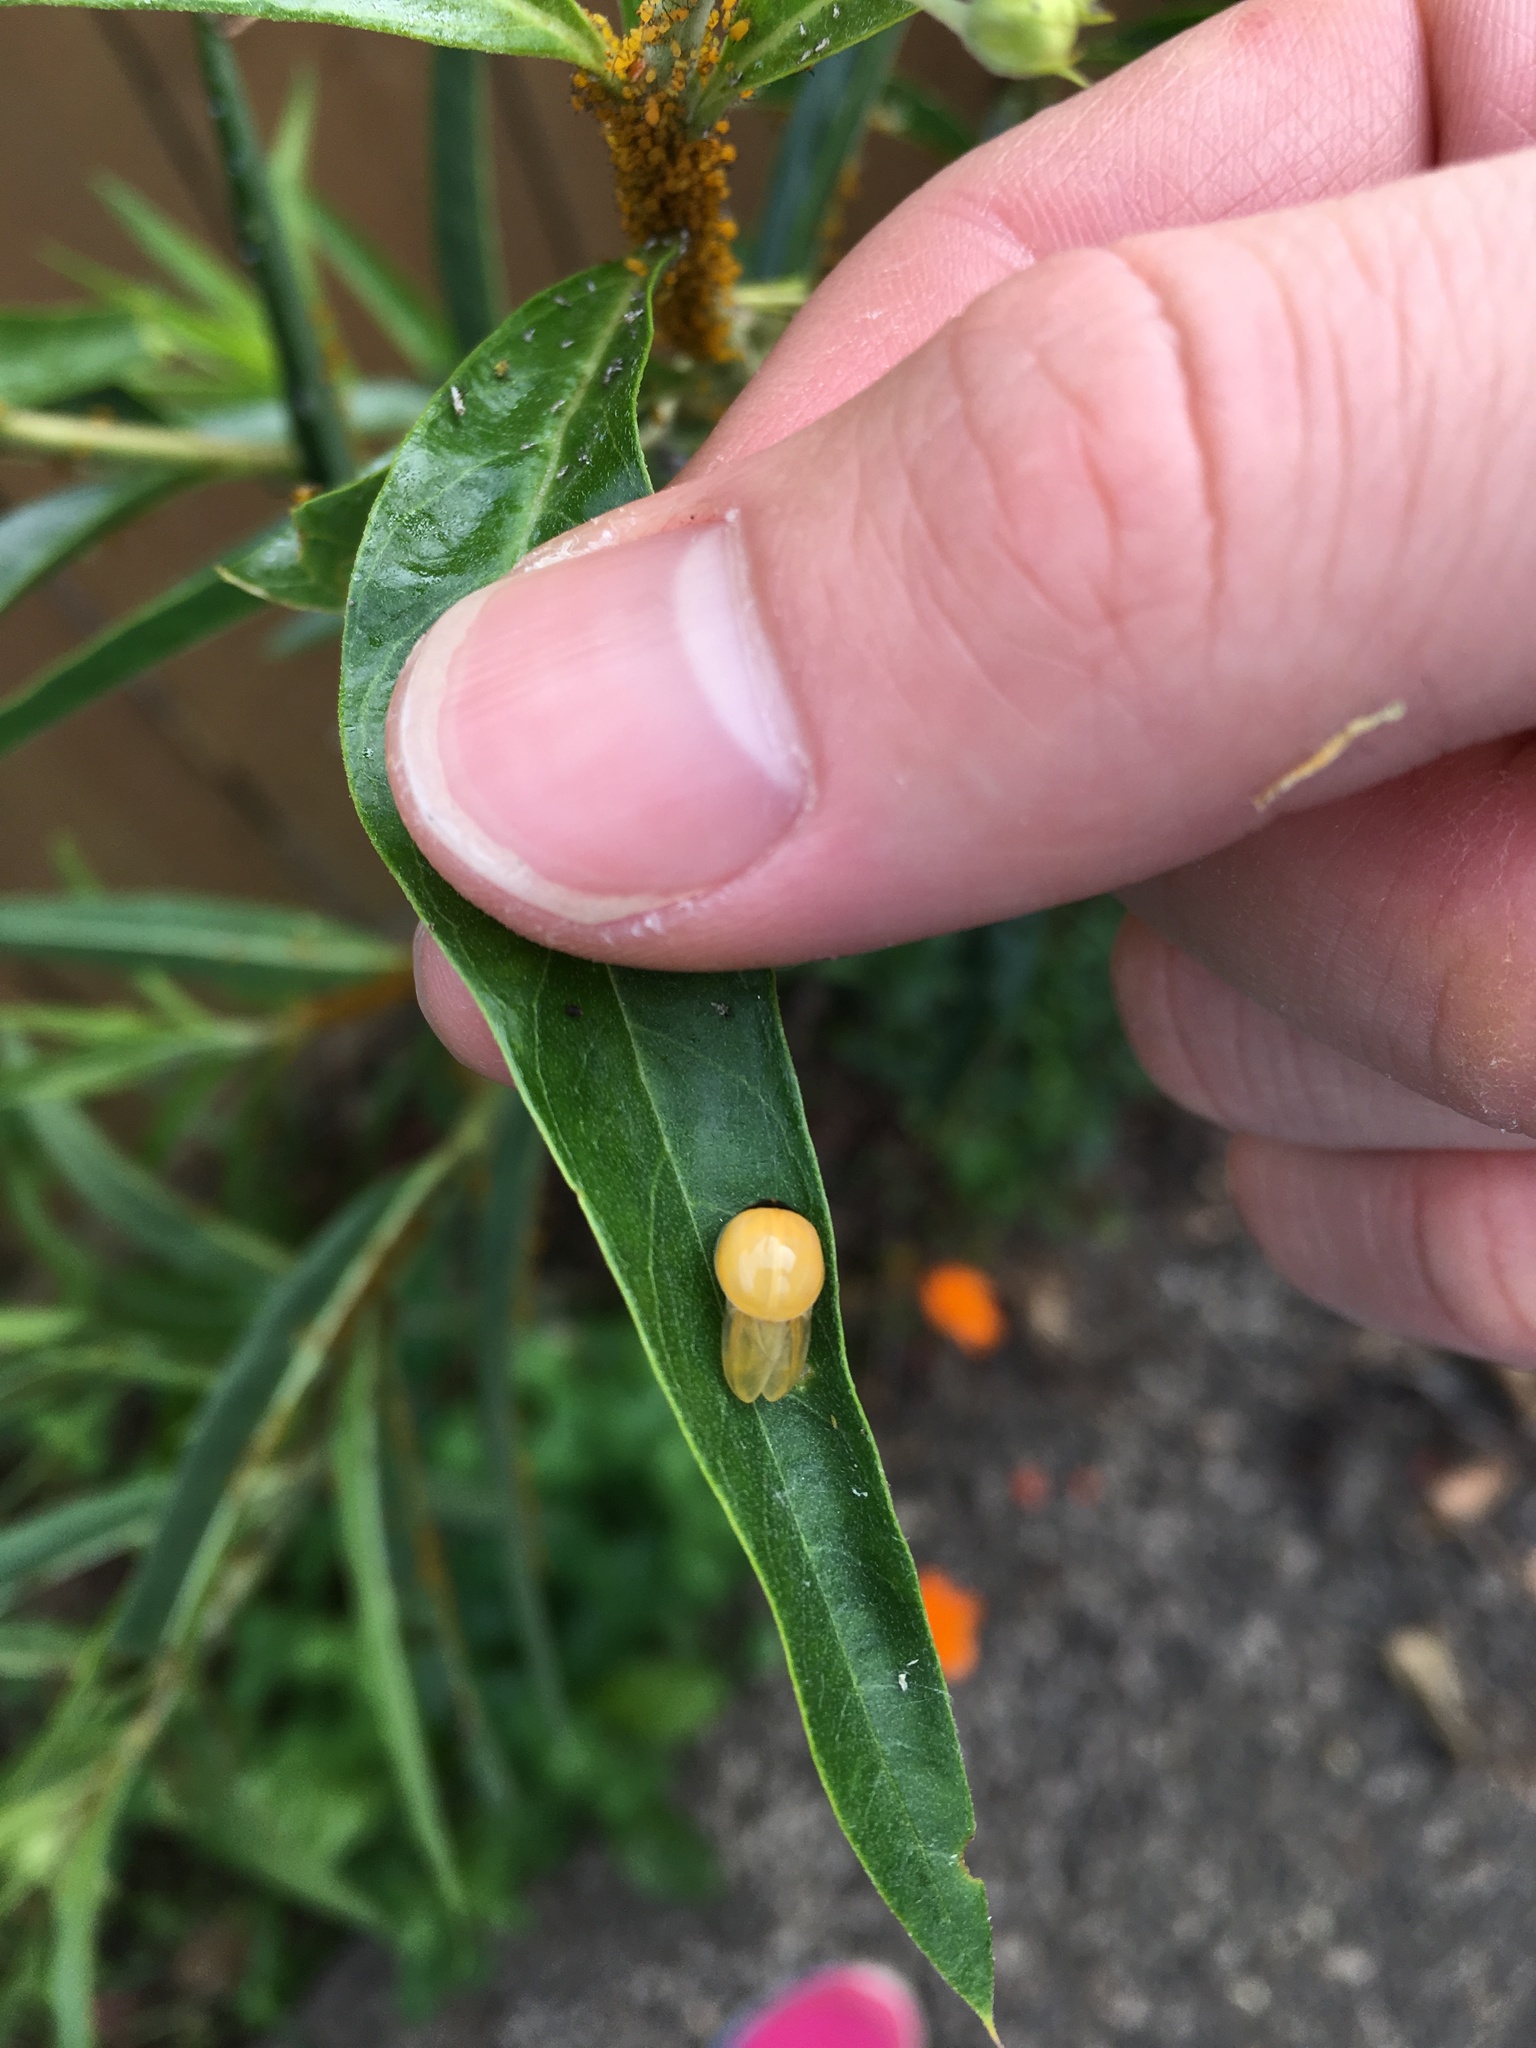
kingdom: Animalia
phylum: Arthropoda
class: Insecta
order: Coleoptera
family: Coccinellidae
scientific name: Coccinellidae
